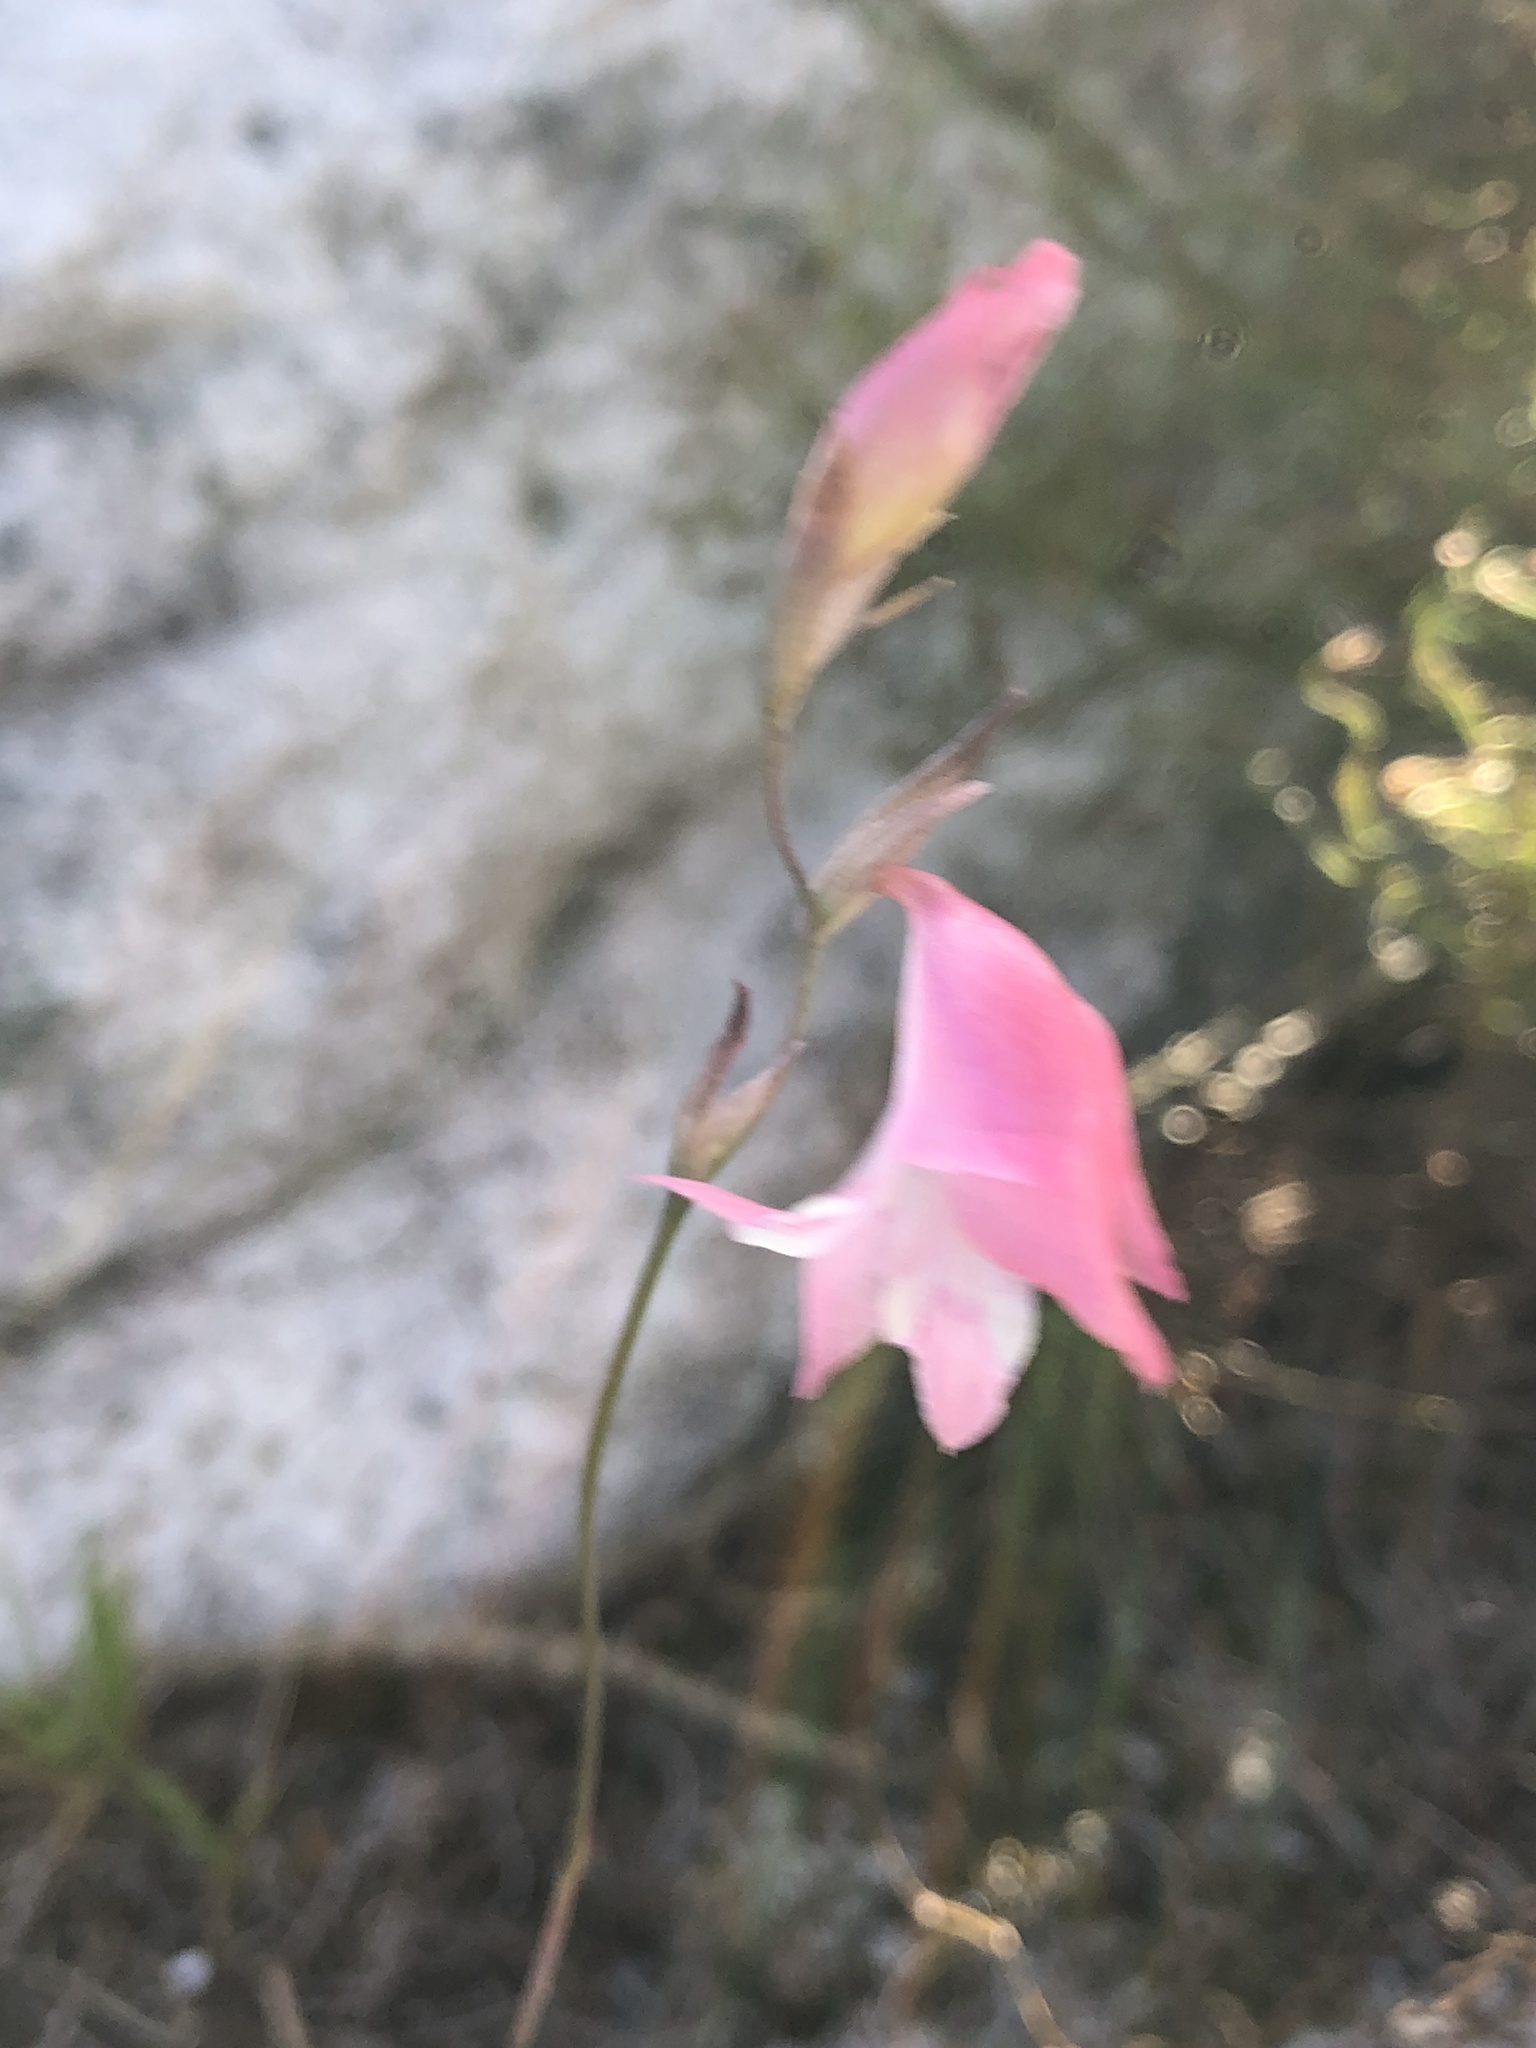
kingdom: Plantae
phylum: Tracheophyta
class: Liliopsida
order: Asparagales
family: Iridaceae
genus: Gladiolus
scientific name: Gladiolus brevifolius
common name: March pypie
